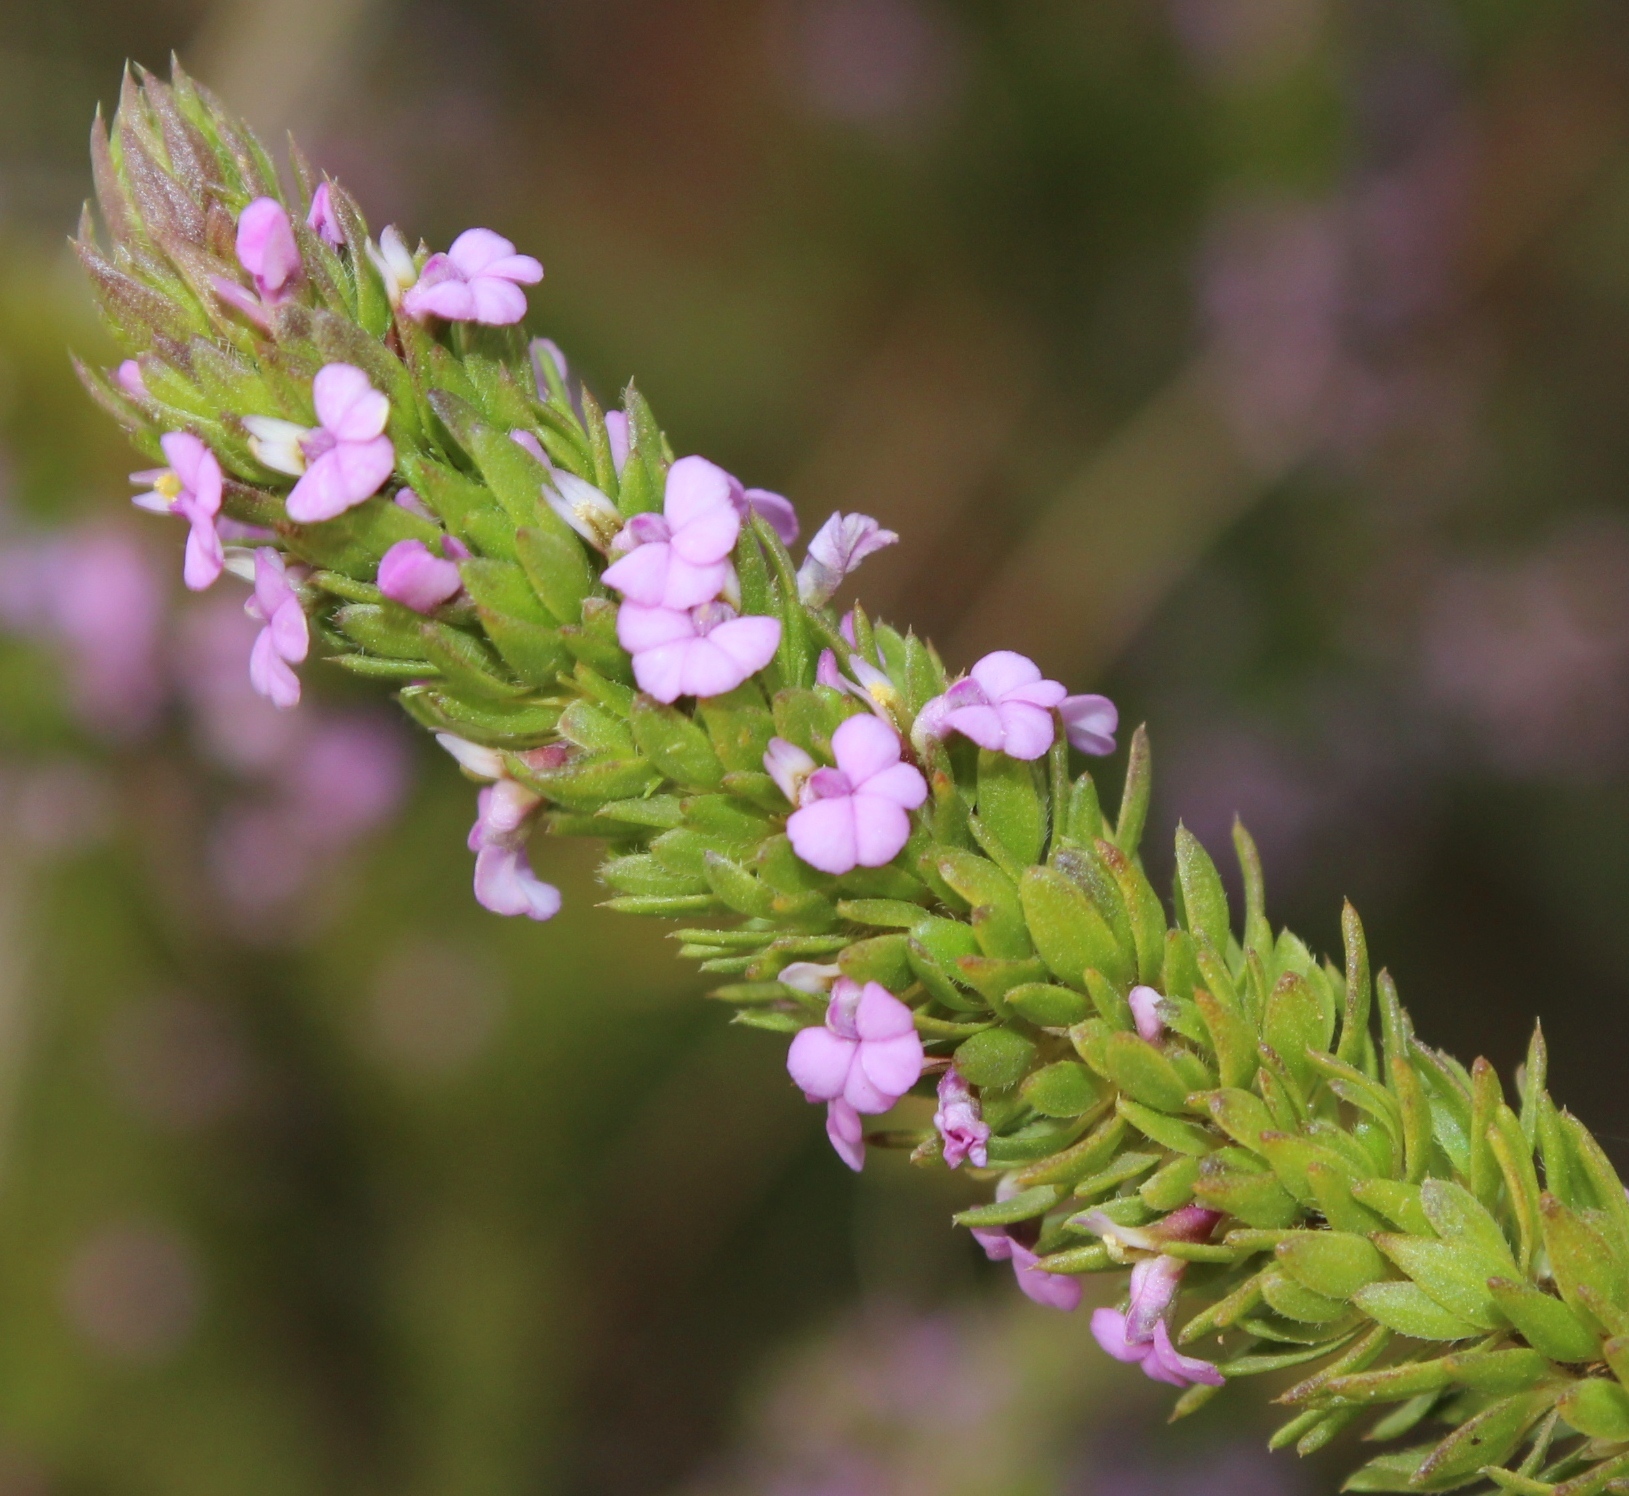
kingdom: Plantae
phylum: Tracheophyta
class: Magnoliopsida
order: Fabales
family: Polygalaceae
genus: Muraltia
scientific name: Muraltia alopecuroides
